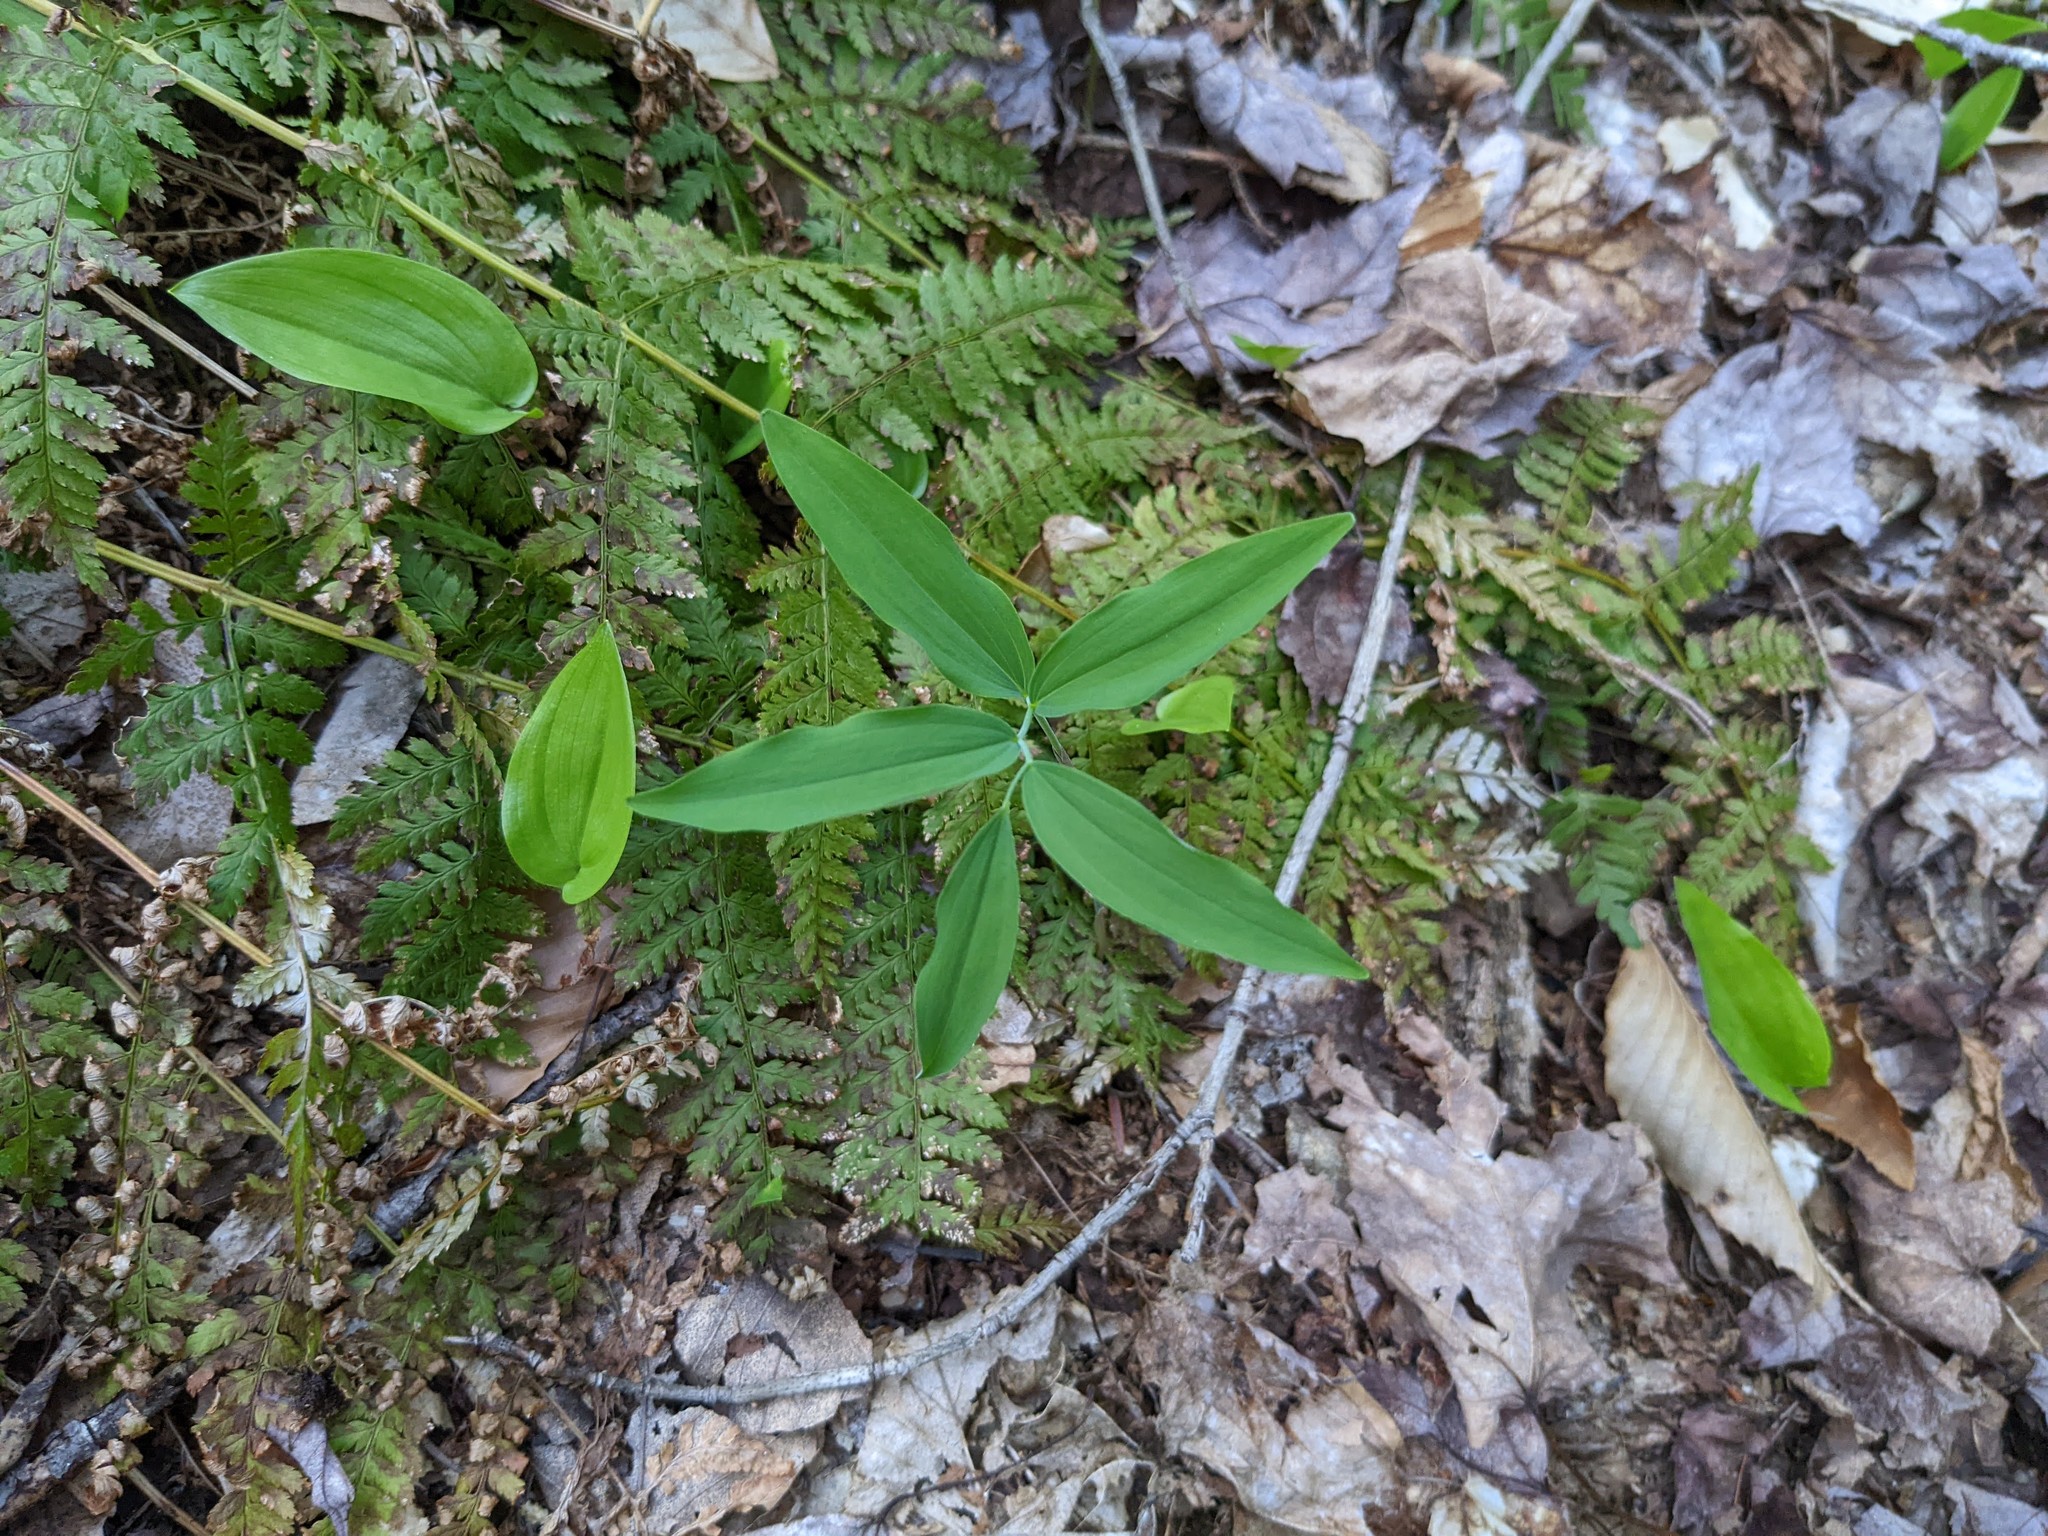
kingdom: Plantae
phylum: Tracheophyta
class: Polypodiopsida
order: Polypodiales
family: Dryopteridaceae
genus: Dryopteris
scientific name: Dryopteris intermedia
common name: Evergreen wood fern
